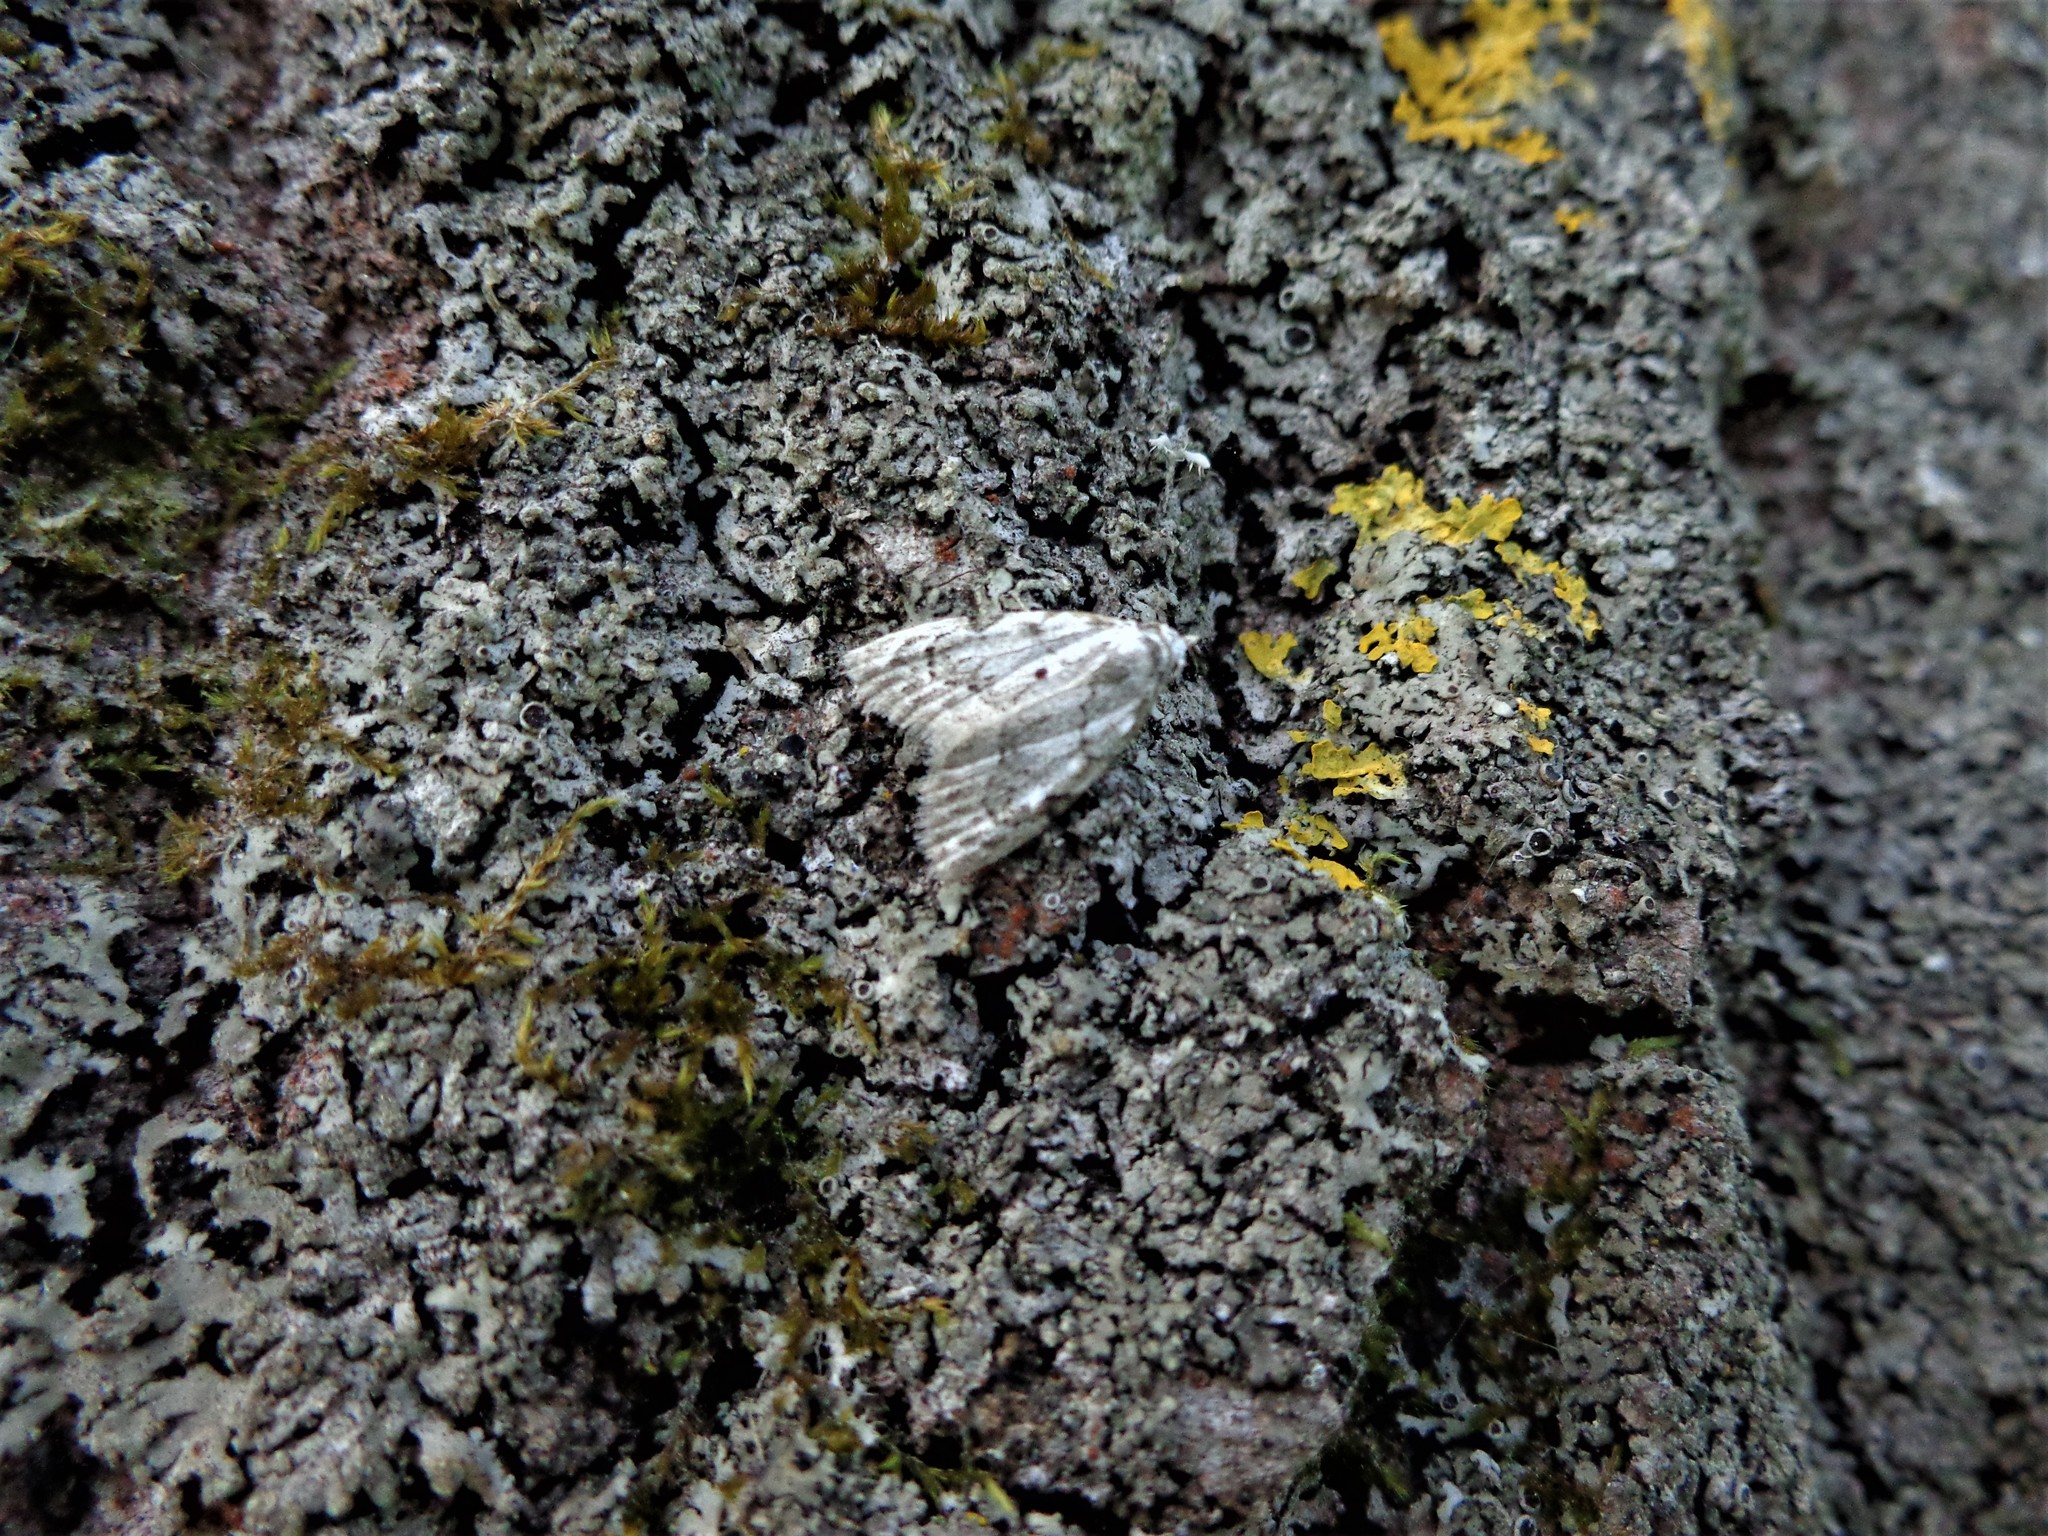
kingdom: Animalia
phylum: Arthropoda
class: Insecta
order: Lepidoptera
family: Nolidae
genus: Nola
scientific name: Nola confusalis
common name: Least black arches
